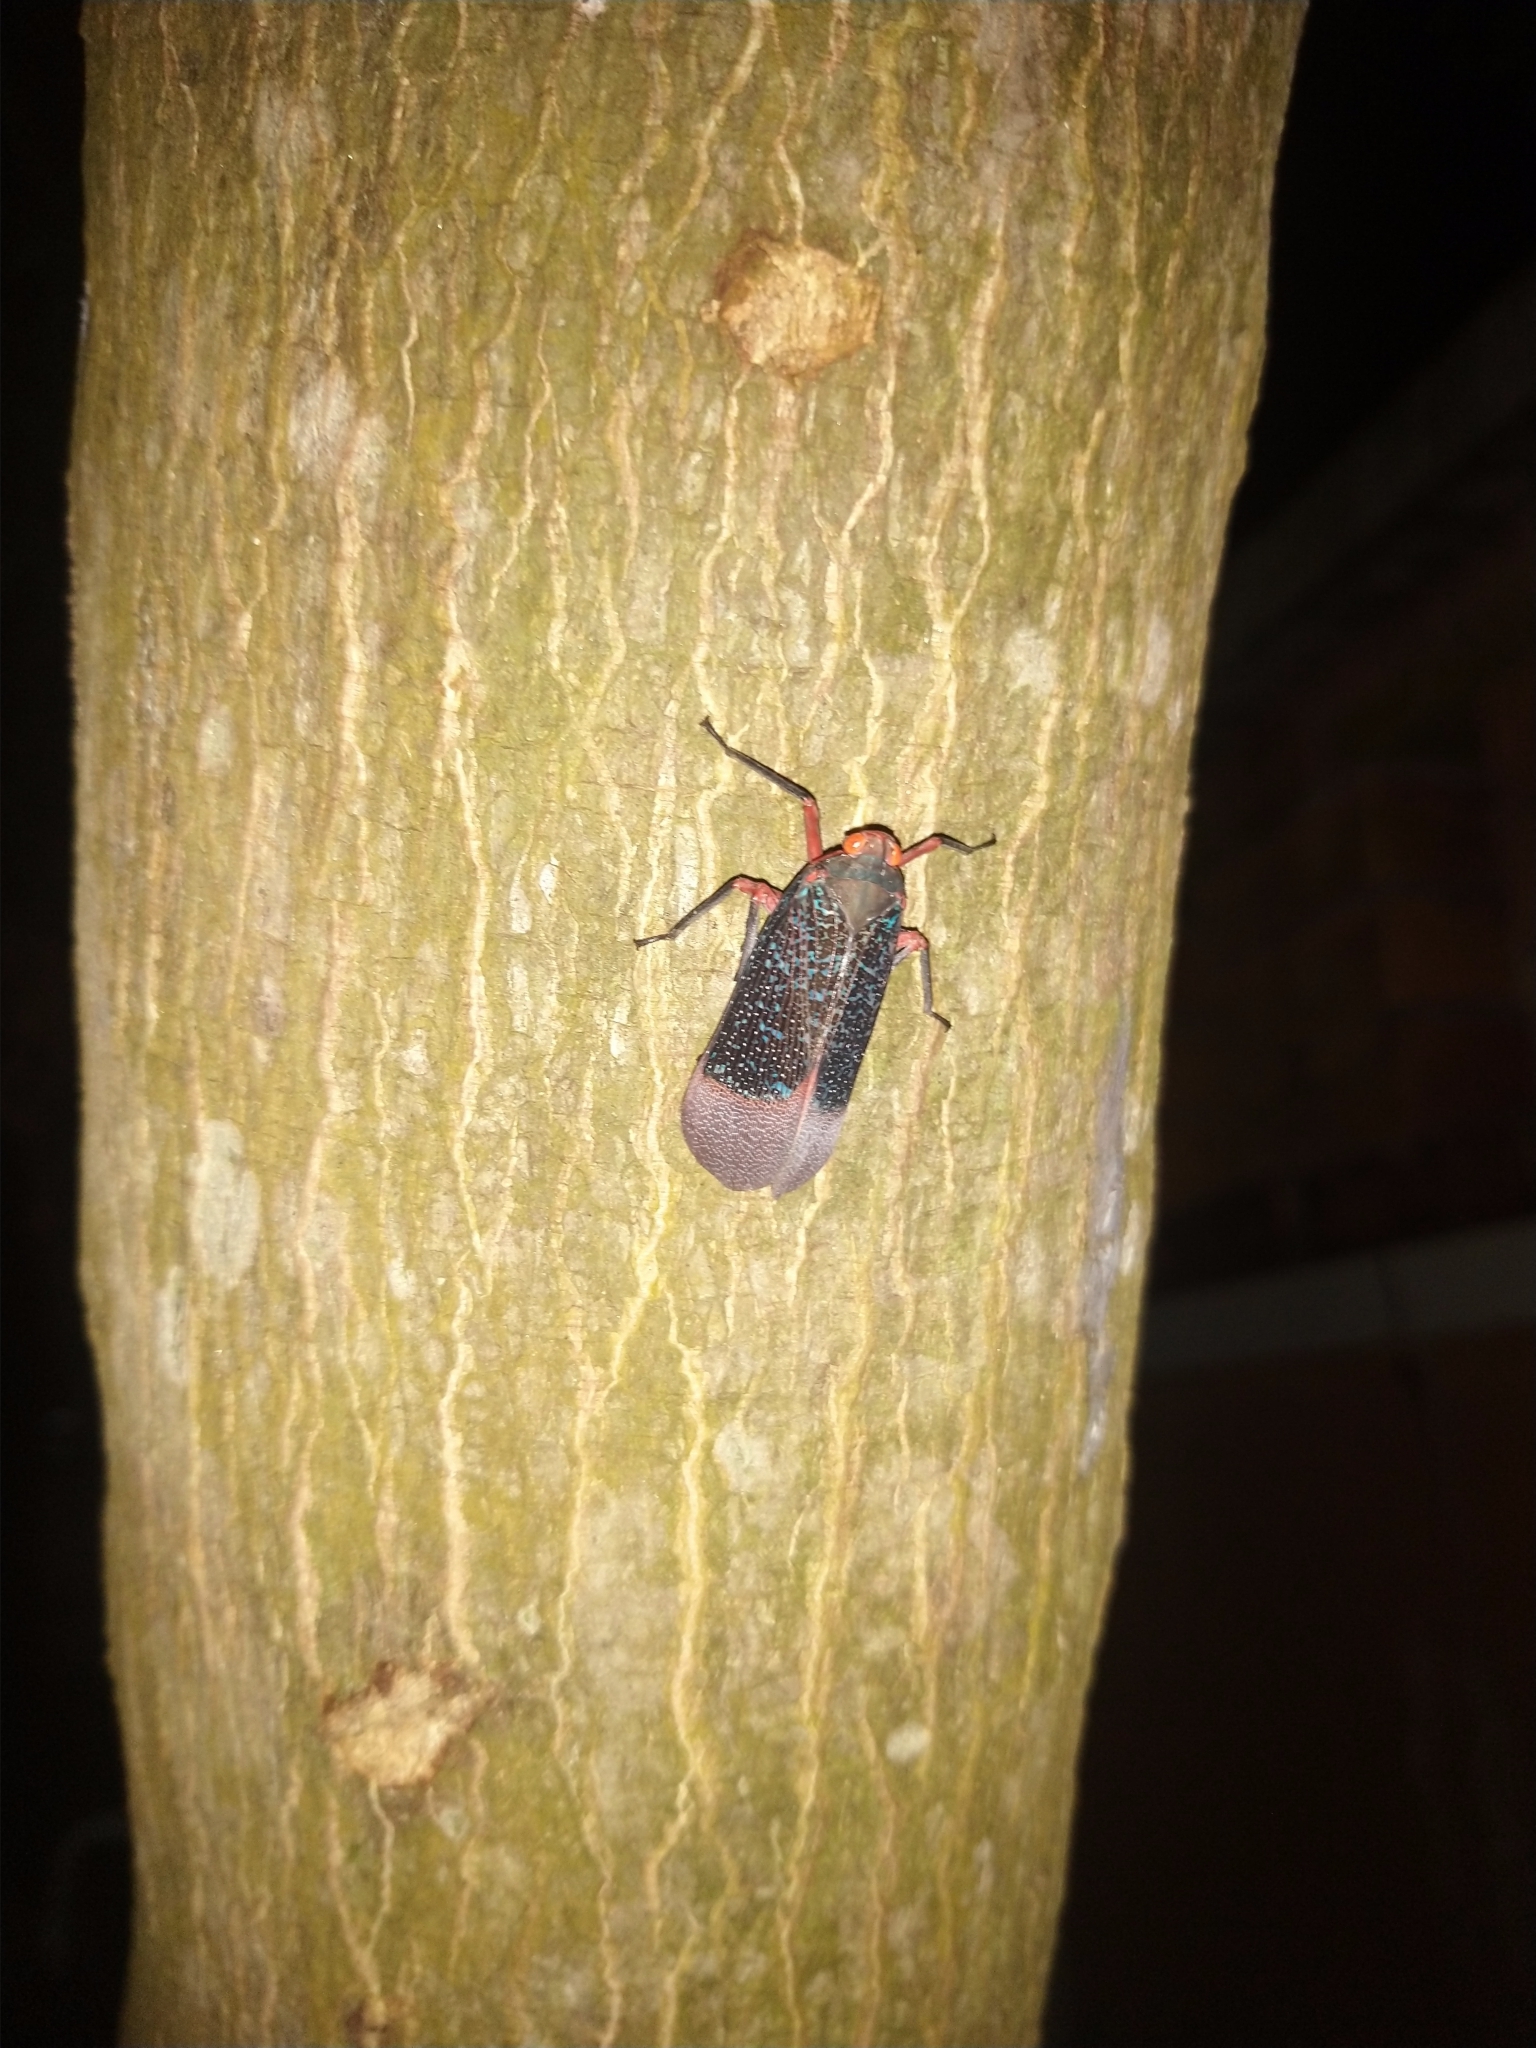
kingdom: Animalia
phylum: Arthropoda
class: Insecta
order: Hemiptera
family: Fulgoridae
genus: Kalidasa
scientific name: Kalidasa lanata
